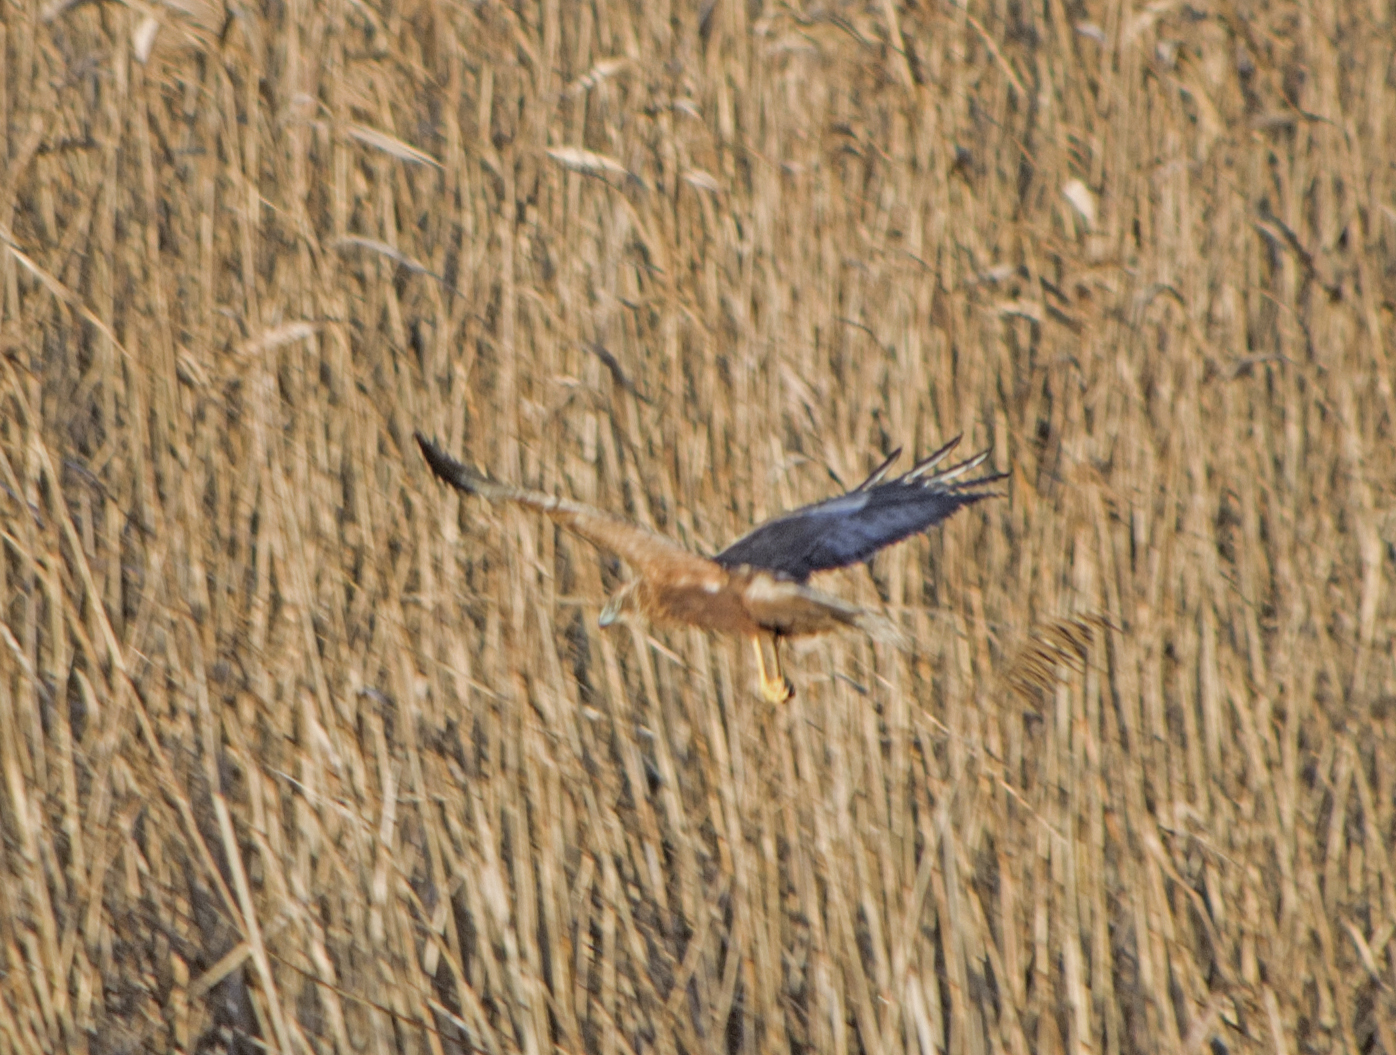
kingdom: Animalia
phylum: Chordata
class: Aves
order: Accipitriformes
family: Accipitridae
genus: Circus
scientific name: Circus aeruginosus
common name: Western marsh harrier
